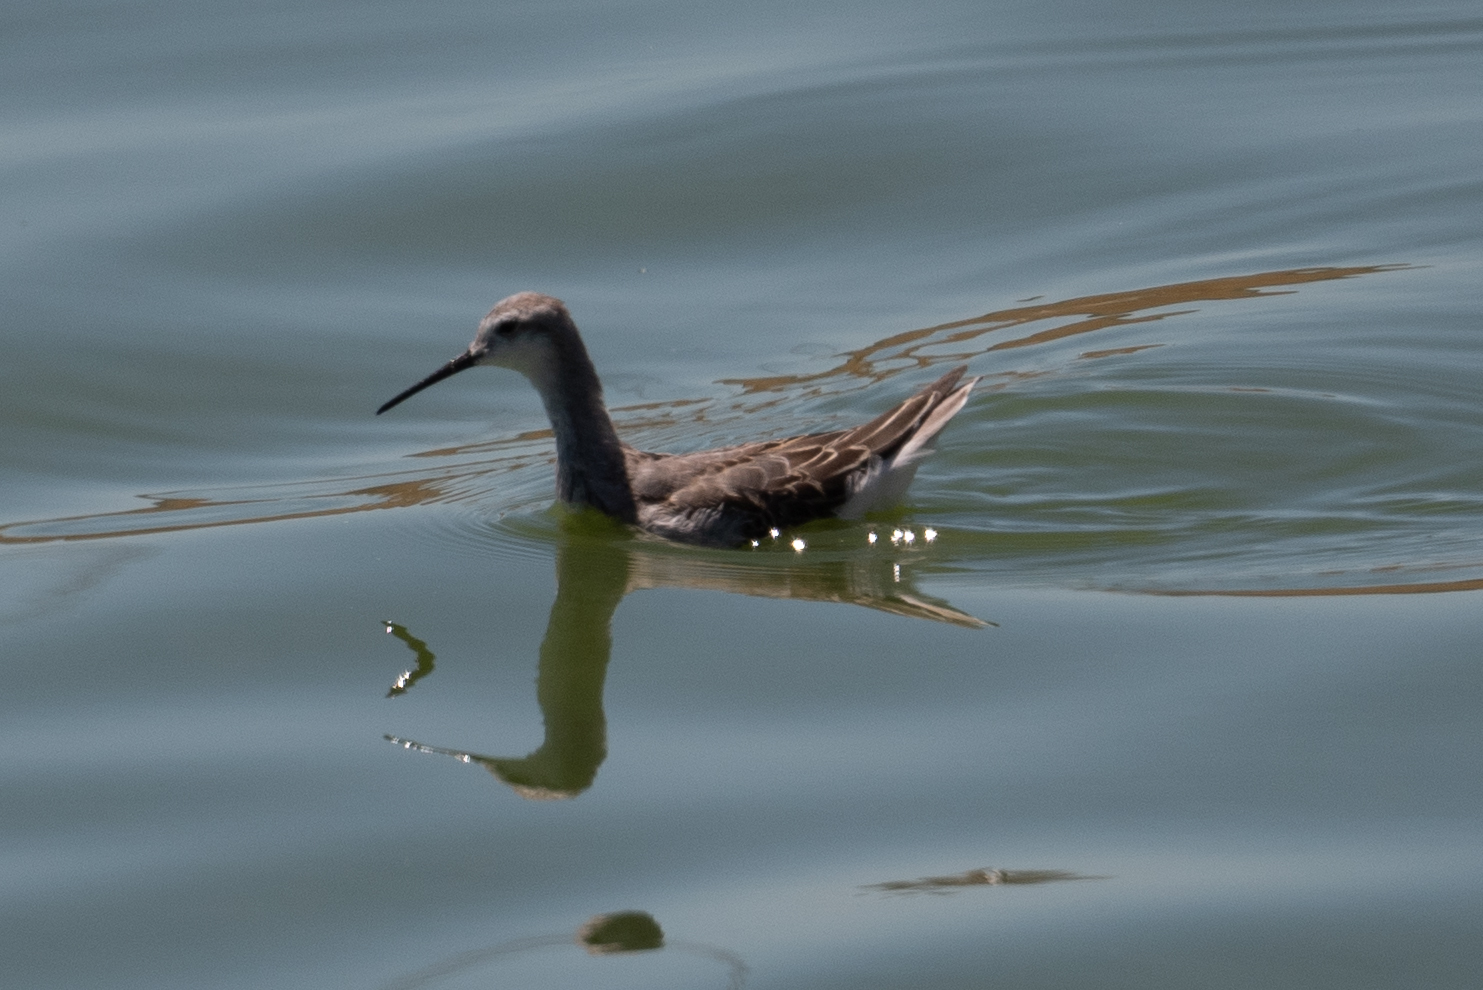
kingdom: Animalia
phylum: Chordata
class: Aves
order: Charadriiformes
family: Scolopacidae
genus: Phalaropus
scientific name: Phalaropus tricolor
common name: Wilson's phalarope
